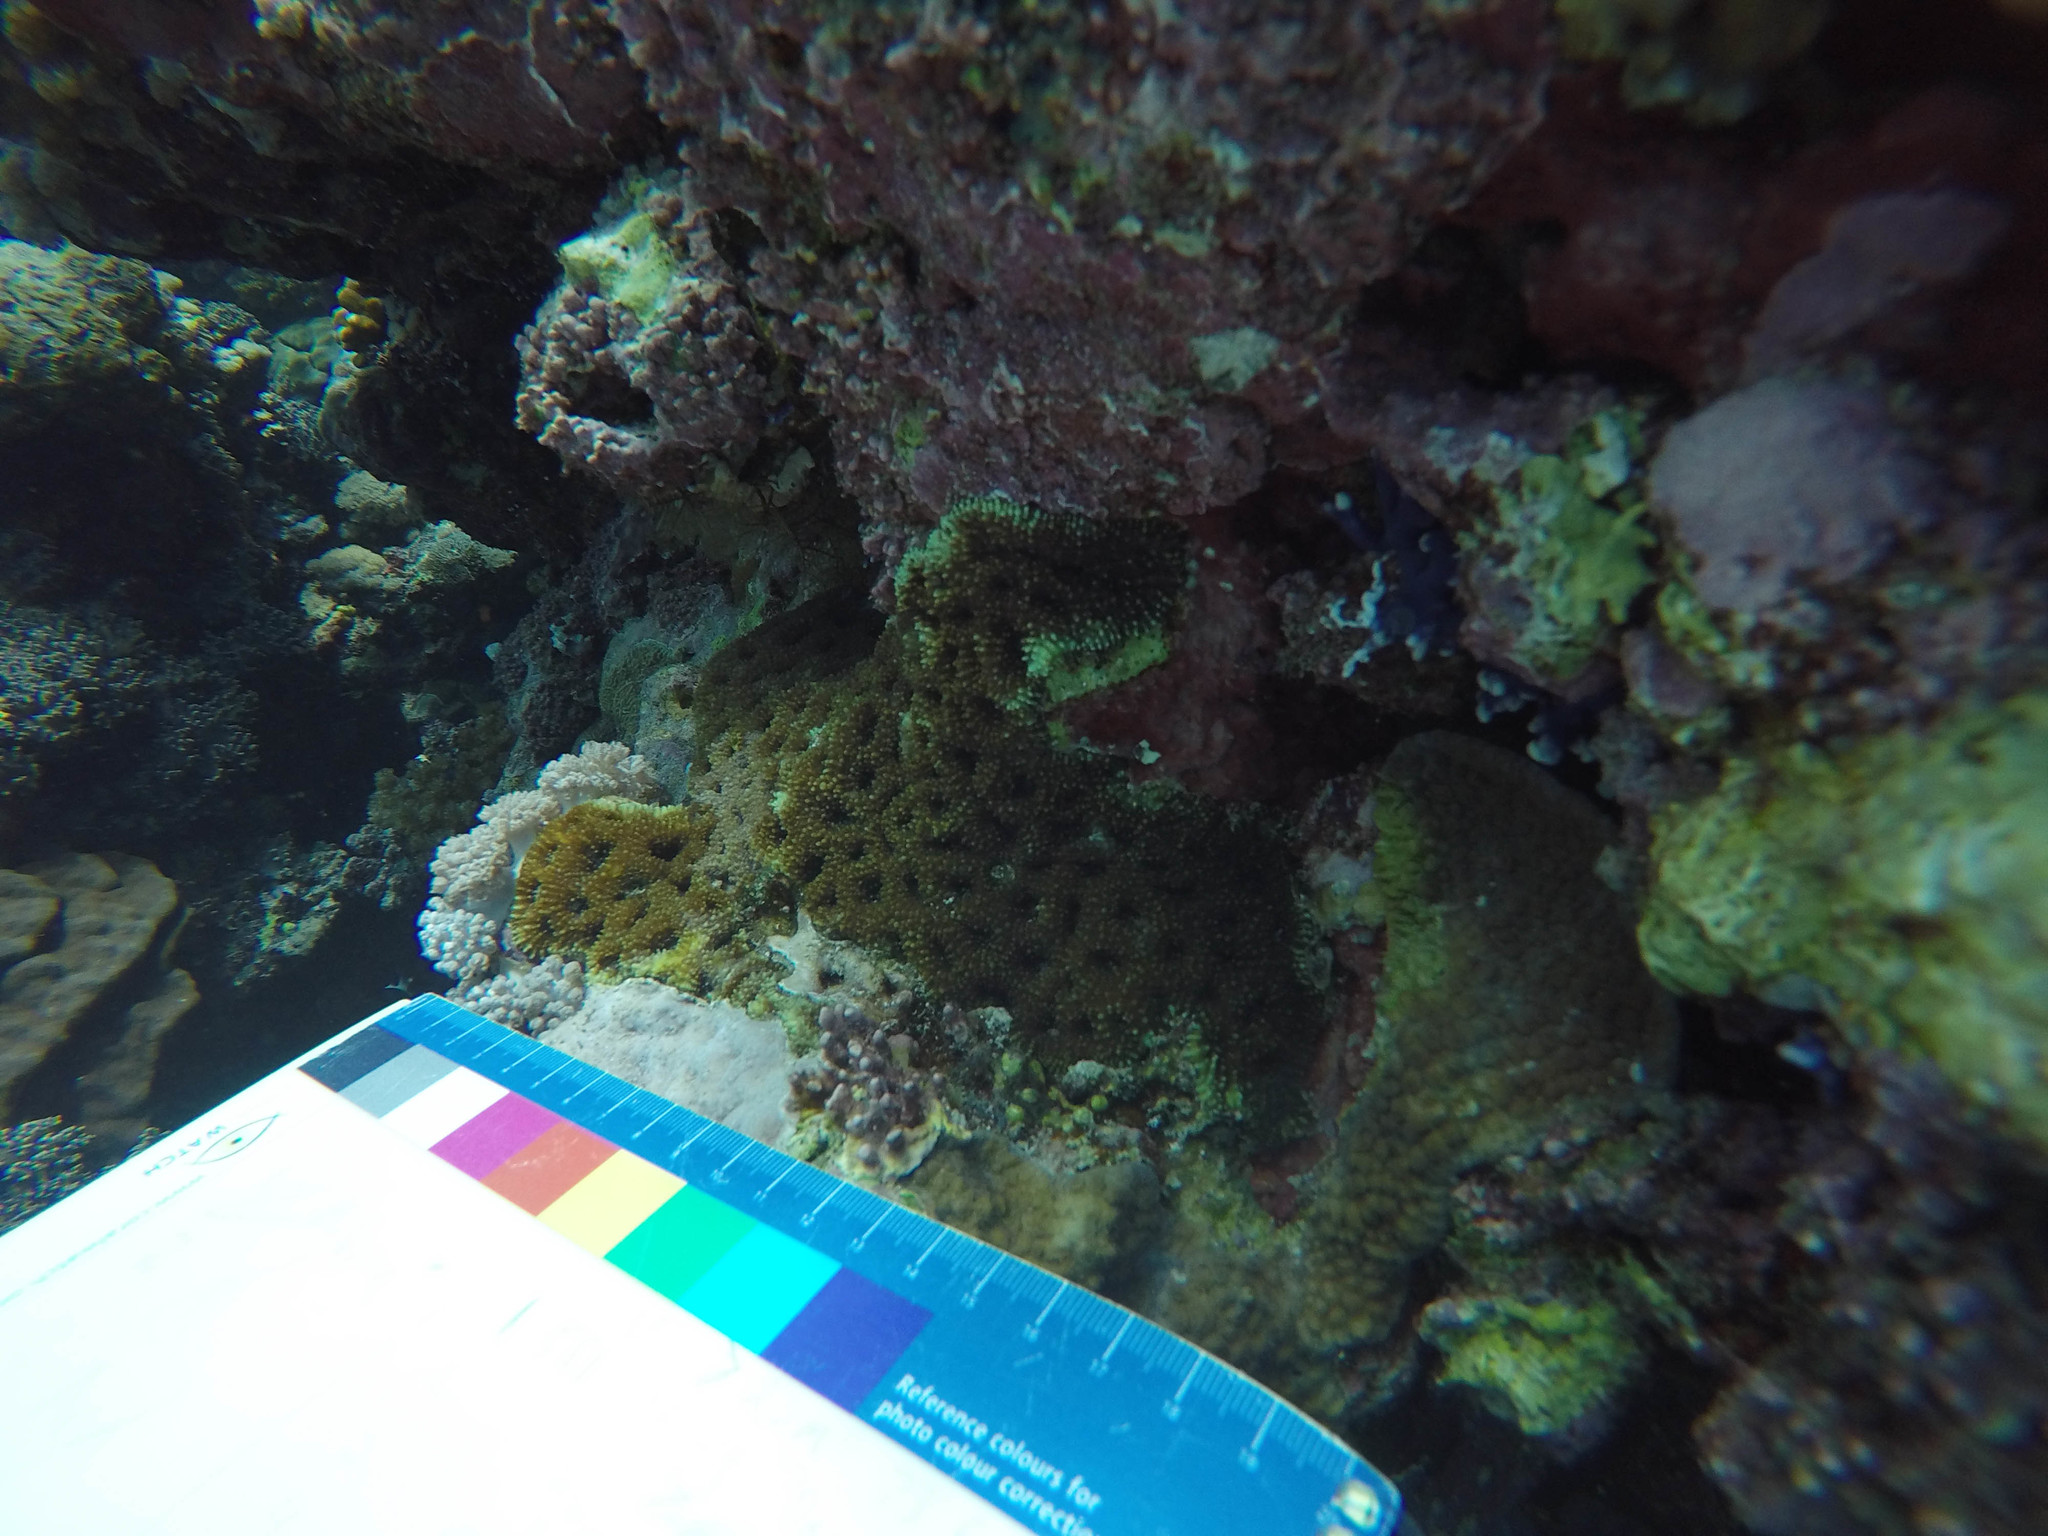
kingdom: Animalia
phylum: Cnidaria
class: Anthozoa
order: Scleractinia
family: Lobophylliidae
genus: Acanthastrea
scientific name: Acanthastrea echinata
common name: Starry cup coral
